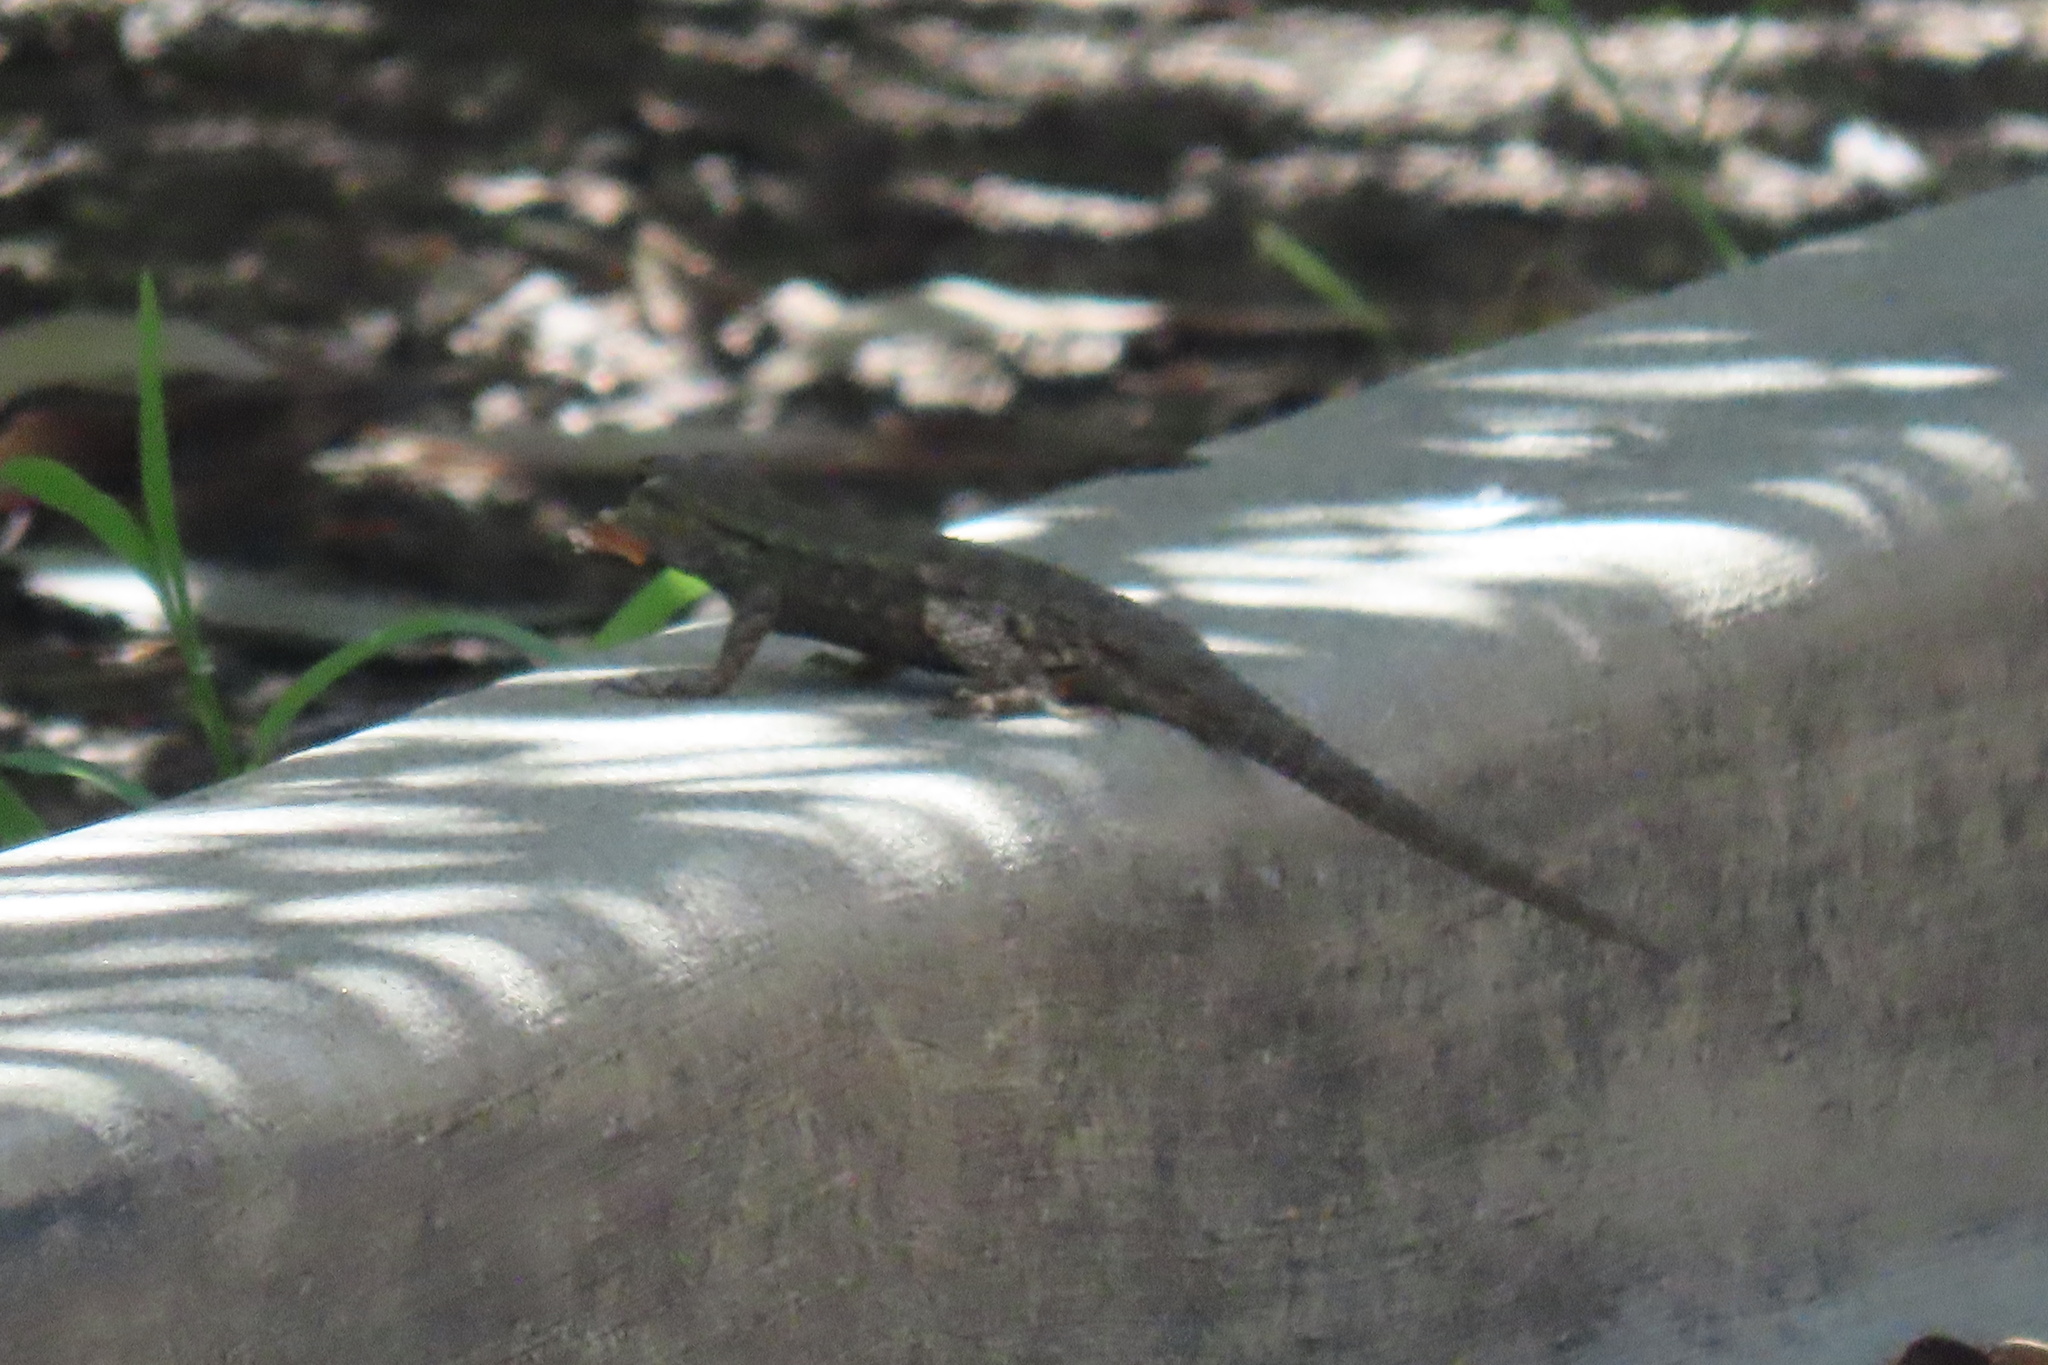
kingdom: Animalia
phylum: Chordata
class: Squamata
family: Phrynosomatidae
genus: Sceloporus
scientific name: Sceloporus occidentalis
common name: Western fence lizard
